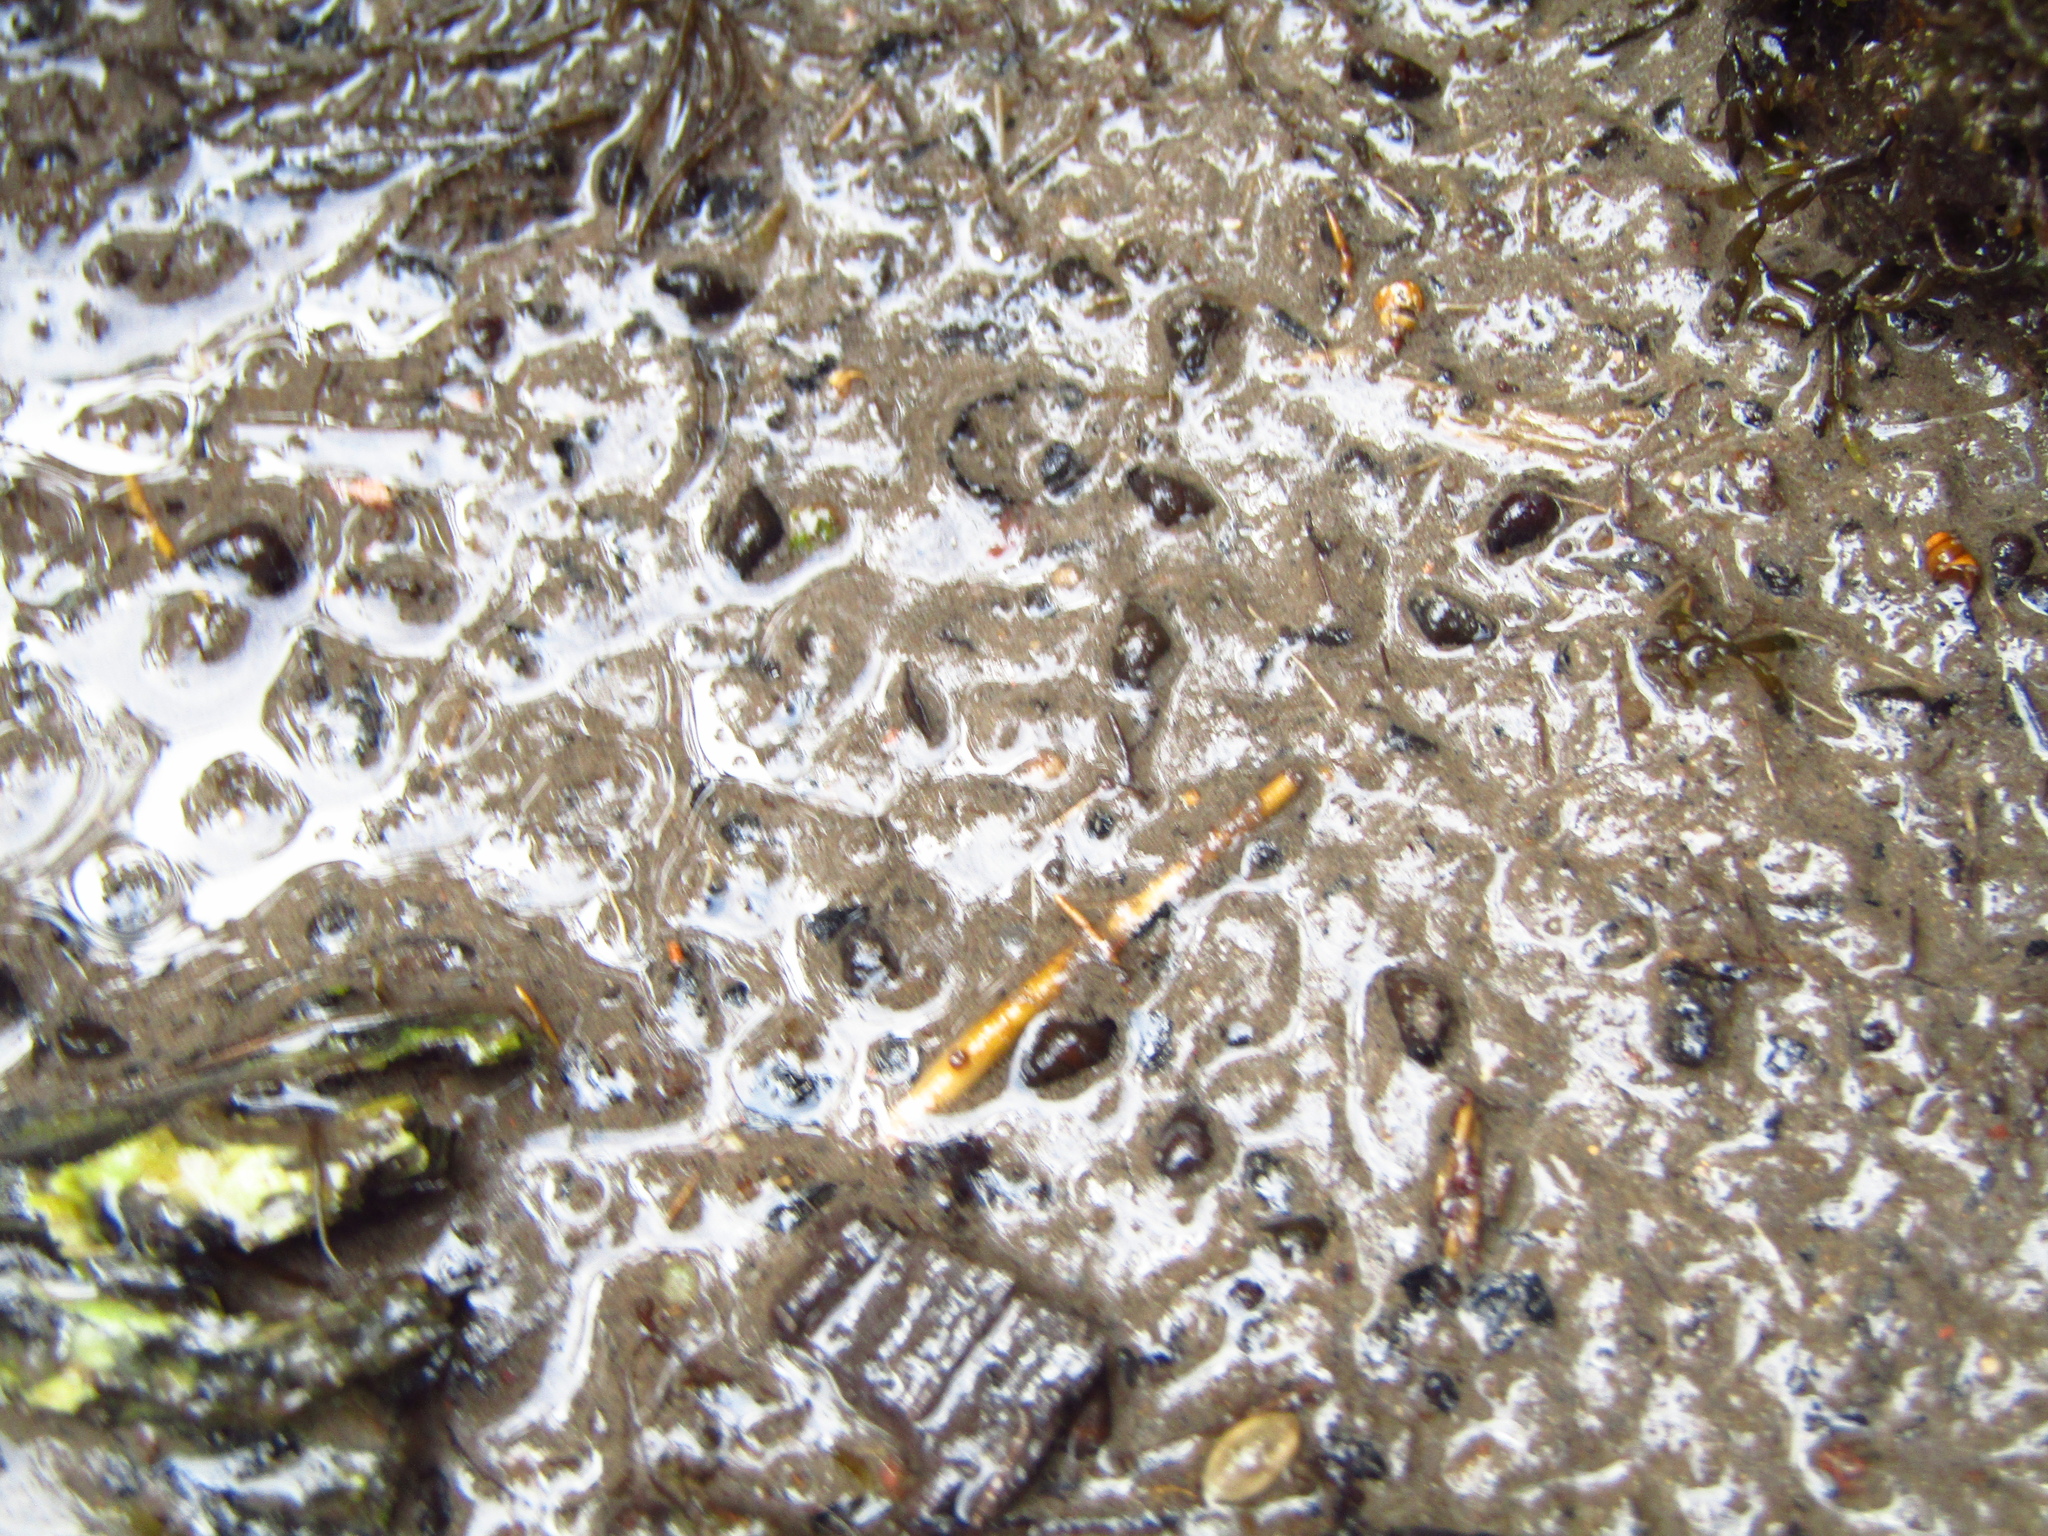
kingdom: Animalia
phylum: Mollusca
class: Gastropoda
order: Littorinimorpha
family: Tateidae
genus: Potamopyrgus
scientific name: Potamopyrgus estuarinus
